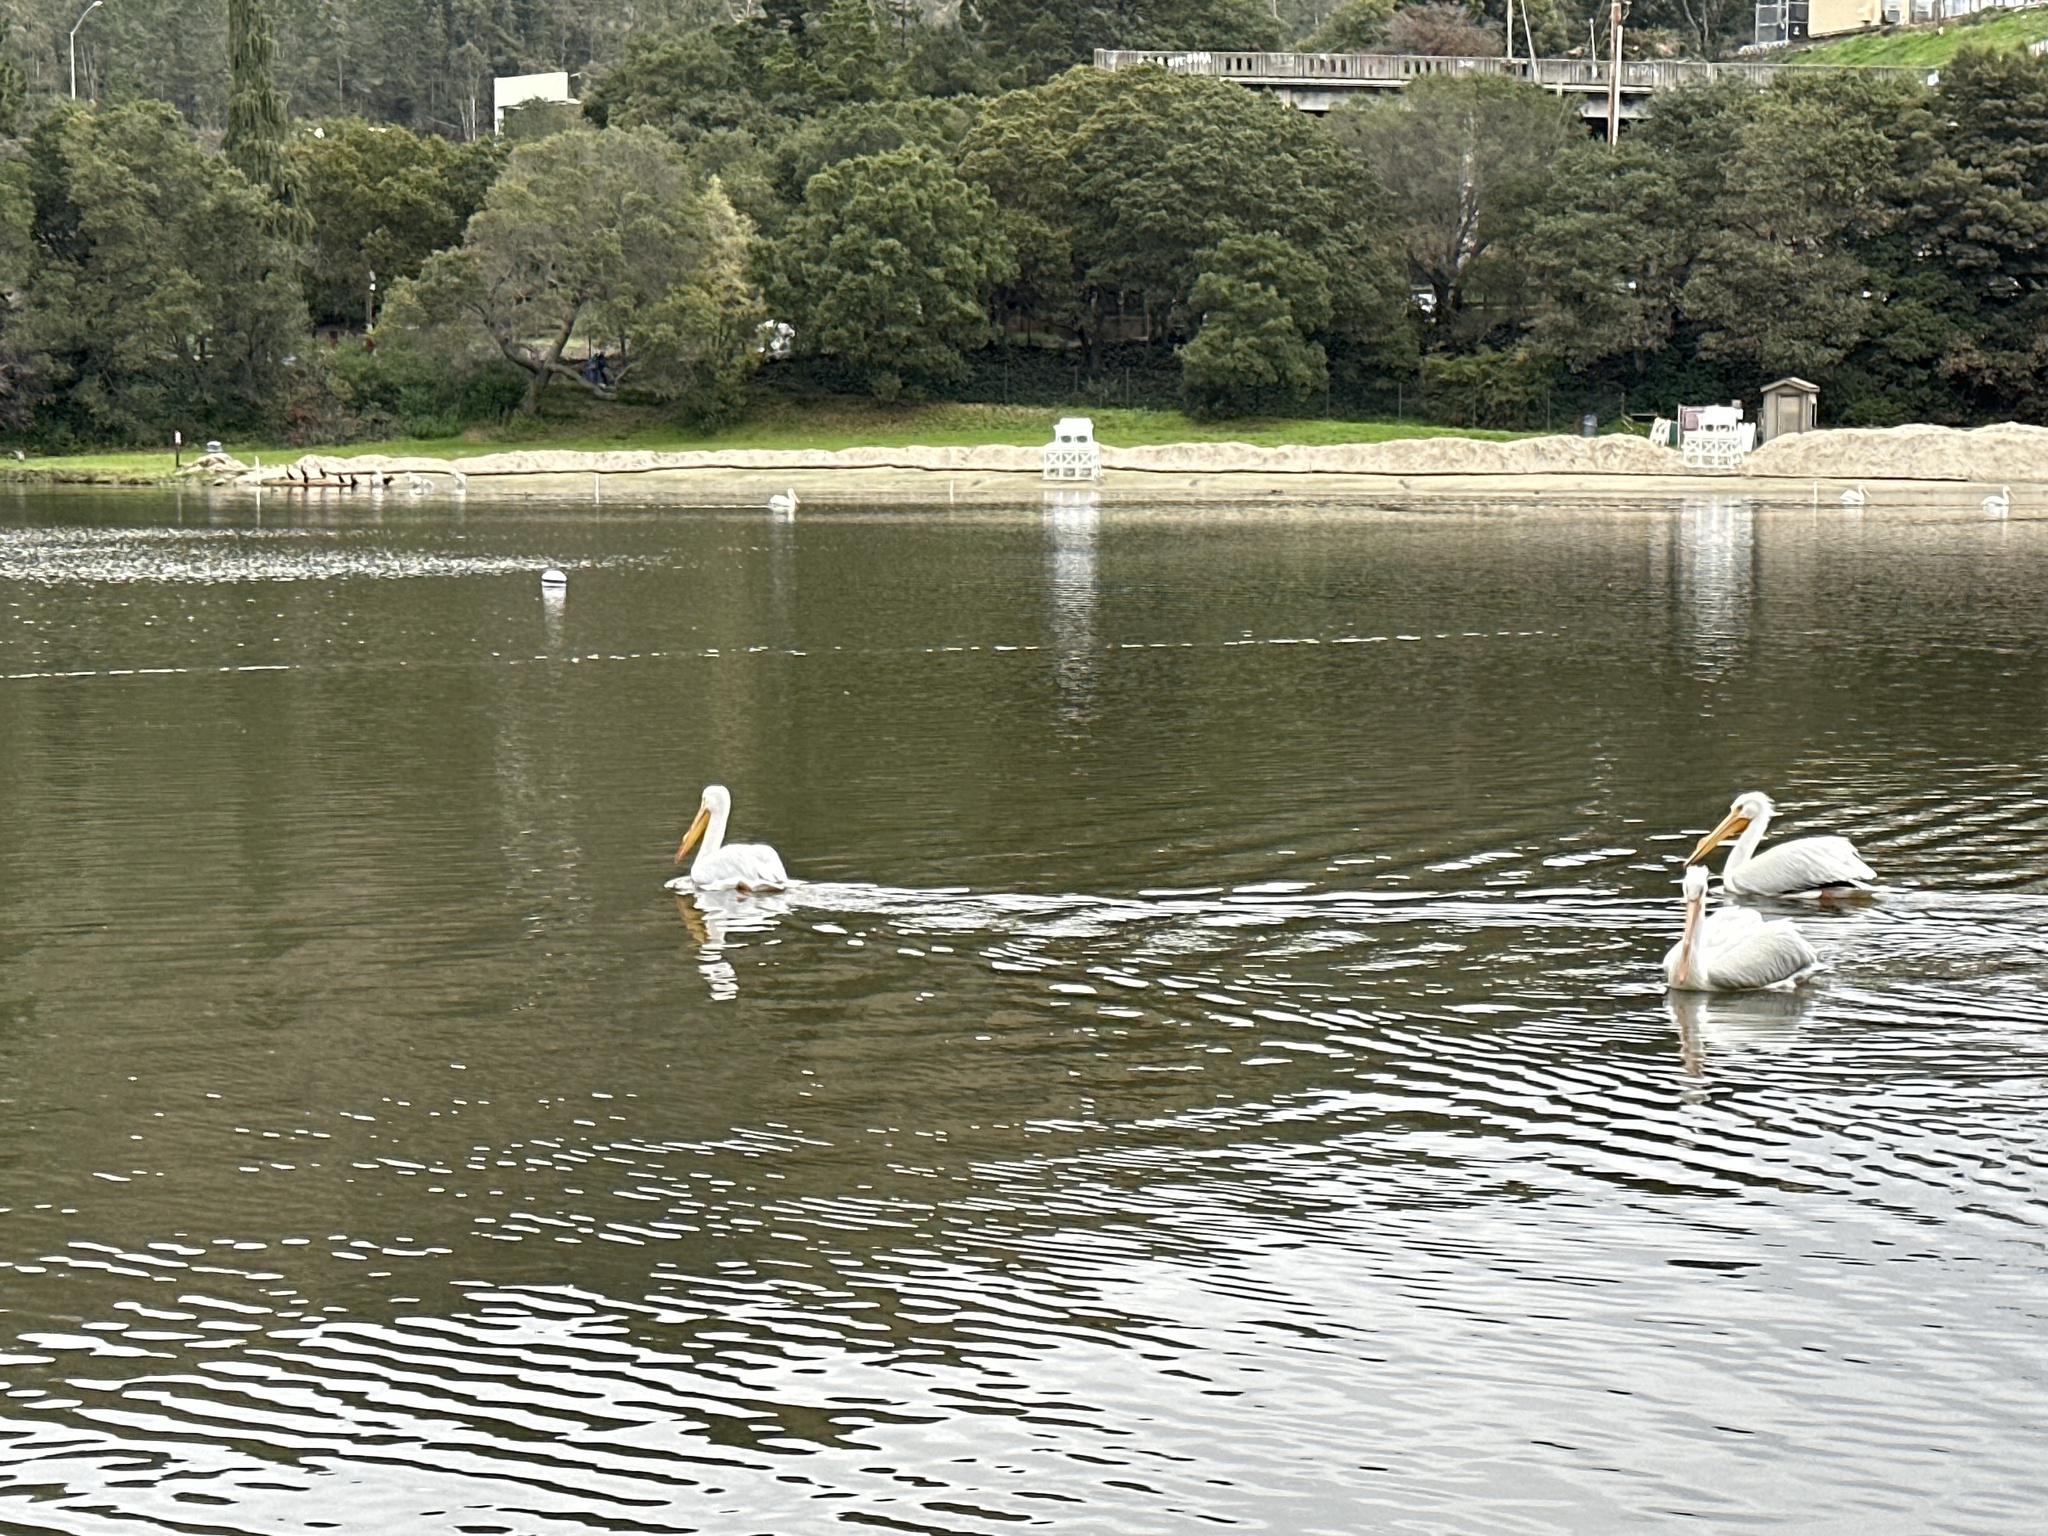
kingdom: Animalia
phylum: Chordata
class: Aves
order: Pelecaniformes
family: Pelecanidae
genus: Pelecanus
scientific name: Pelecanus erythrorhynchos
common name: American white pelican
